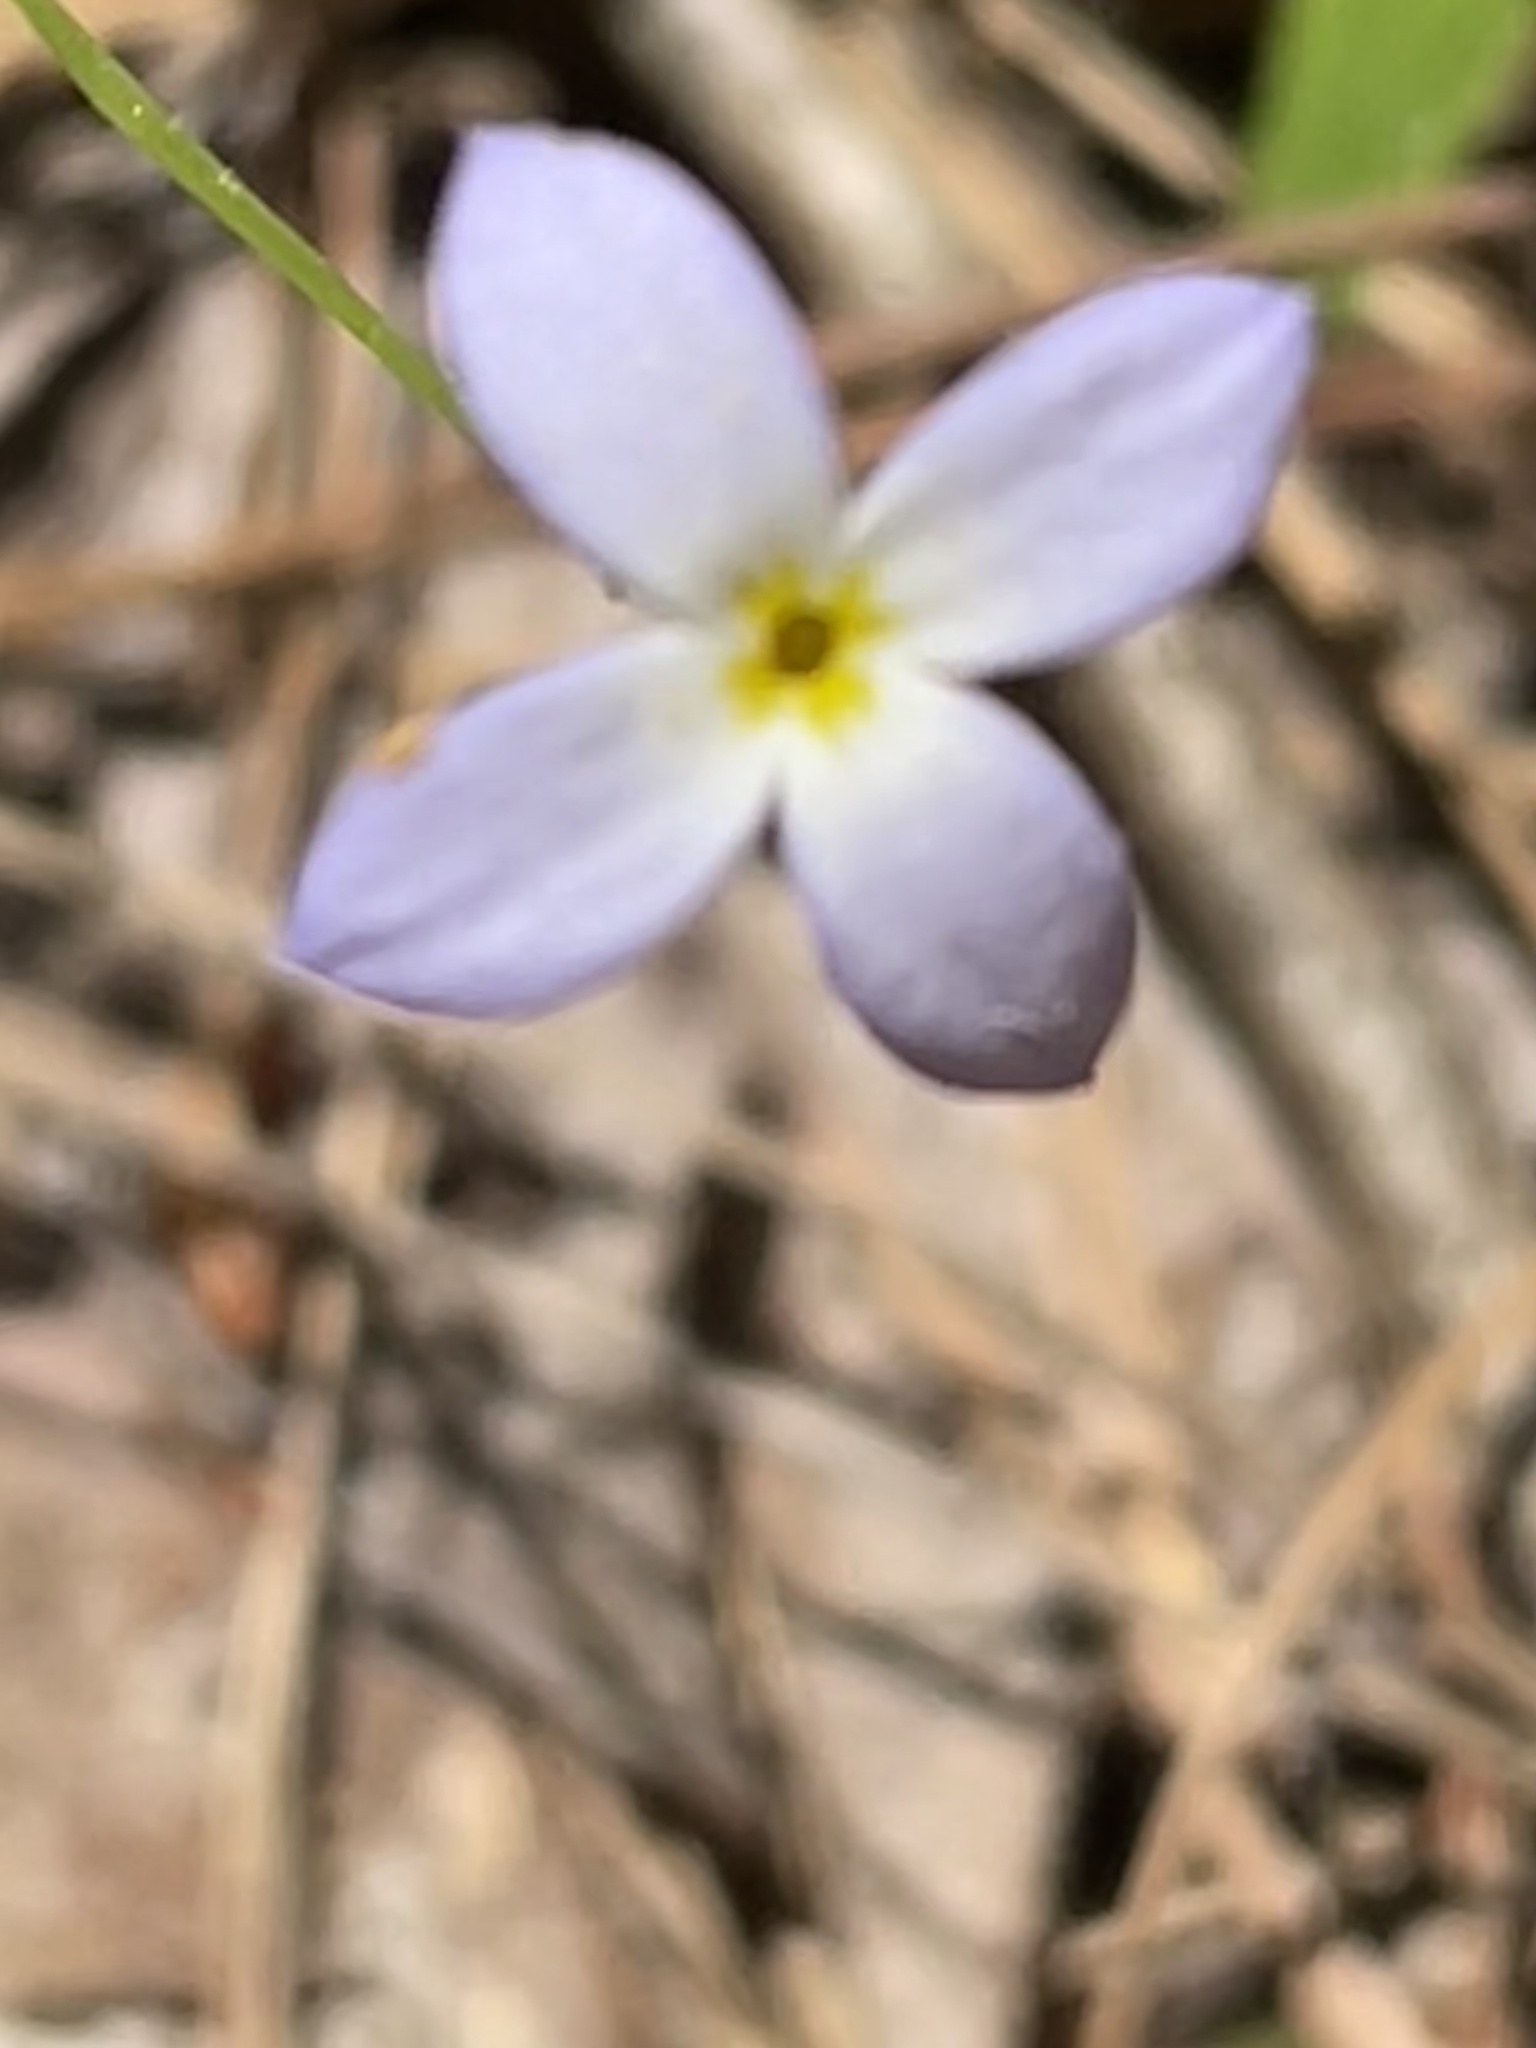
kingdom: Plantae
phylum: Tracheophyta
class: Magnoliopsida
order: Gentianales
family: Rubiaceae
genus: Houstonia
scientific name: Houstonia caerulea
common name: Bluets
